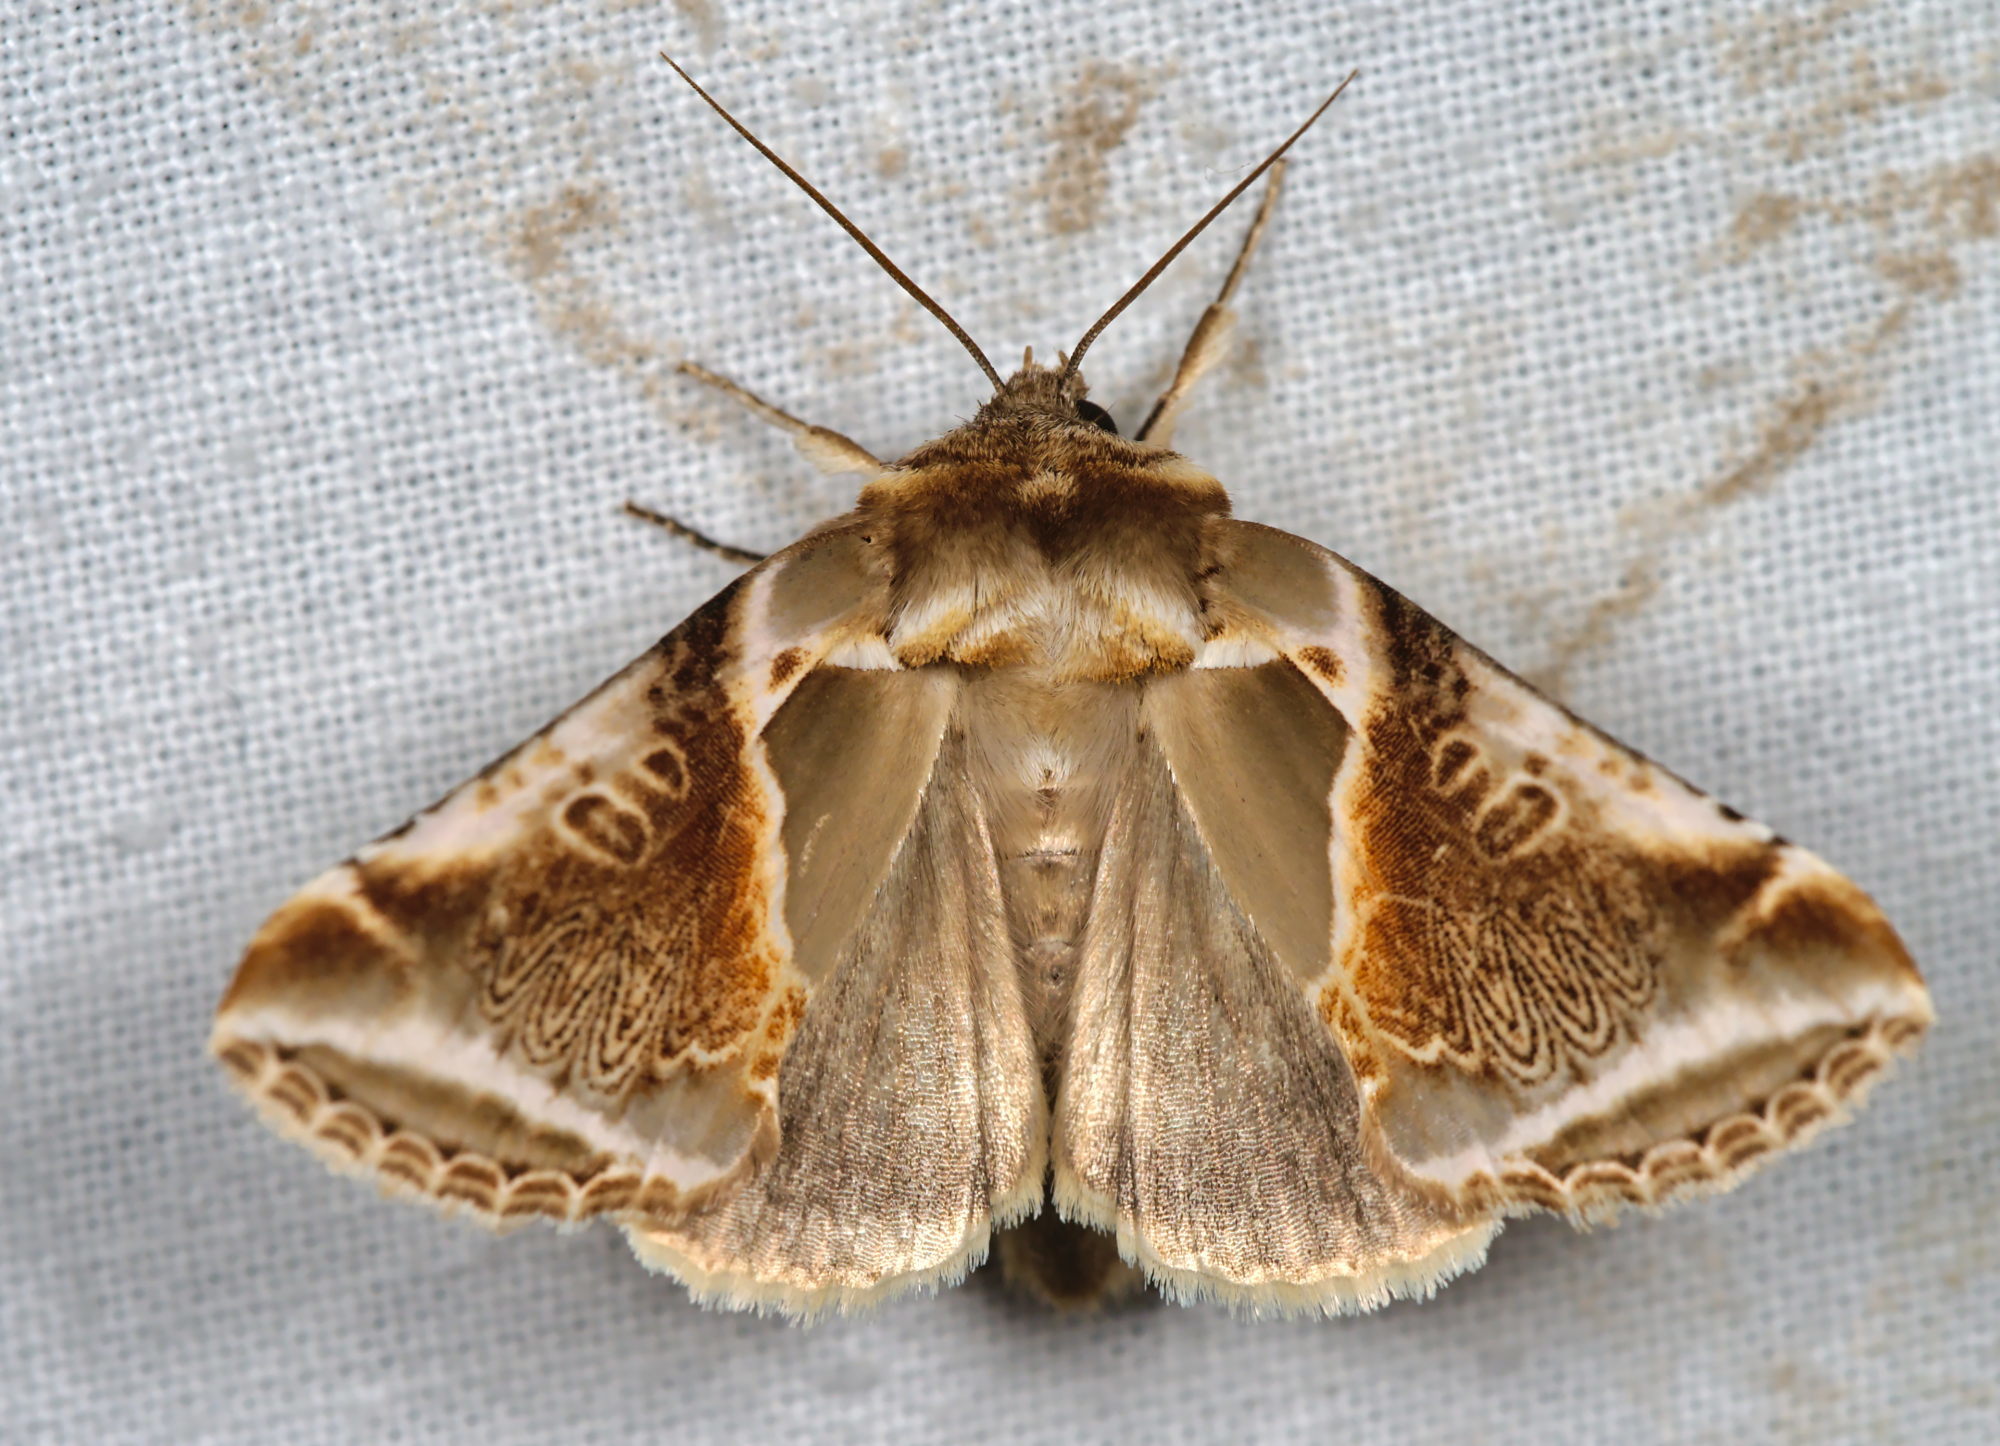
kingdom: Animalia
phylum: Arthropoda
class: Insecta
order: Lepidoptera
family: Drepanidae
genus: Habrosyne
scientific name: Habrosyne pyritoides
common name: Buff arches
